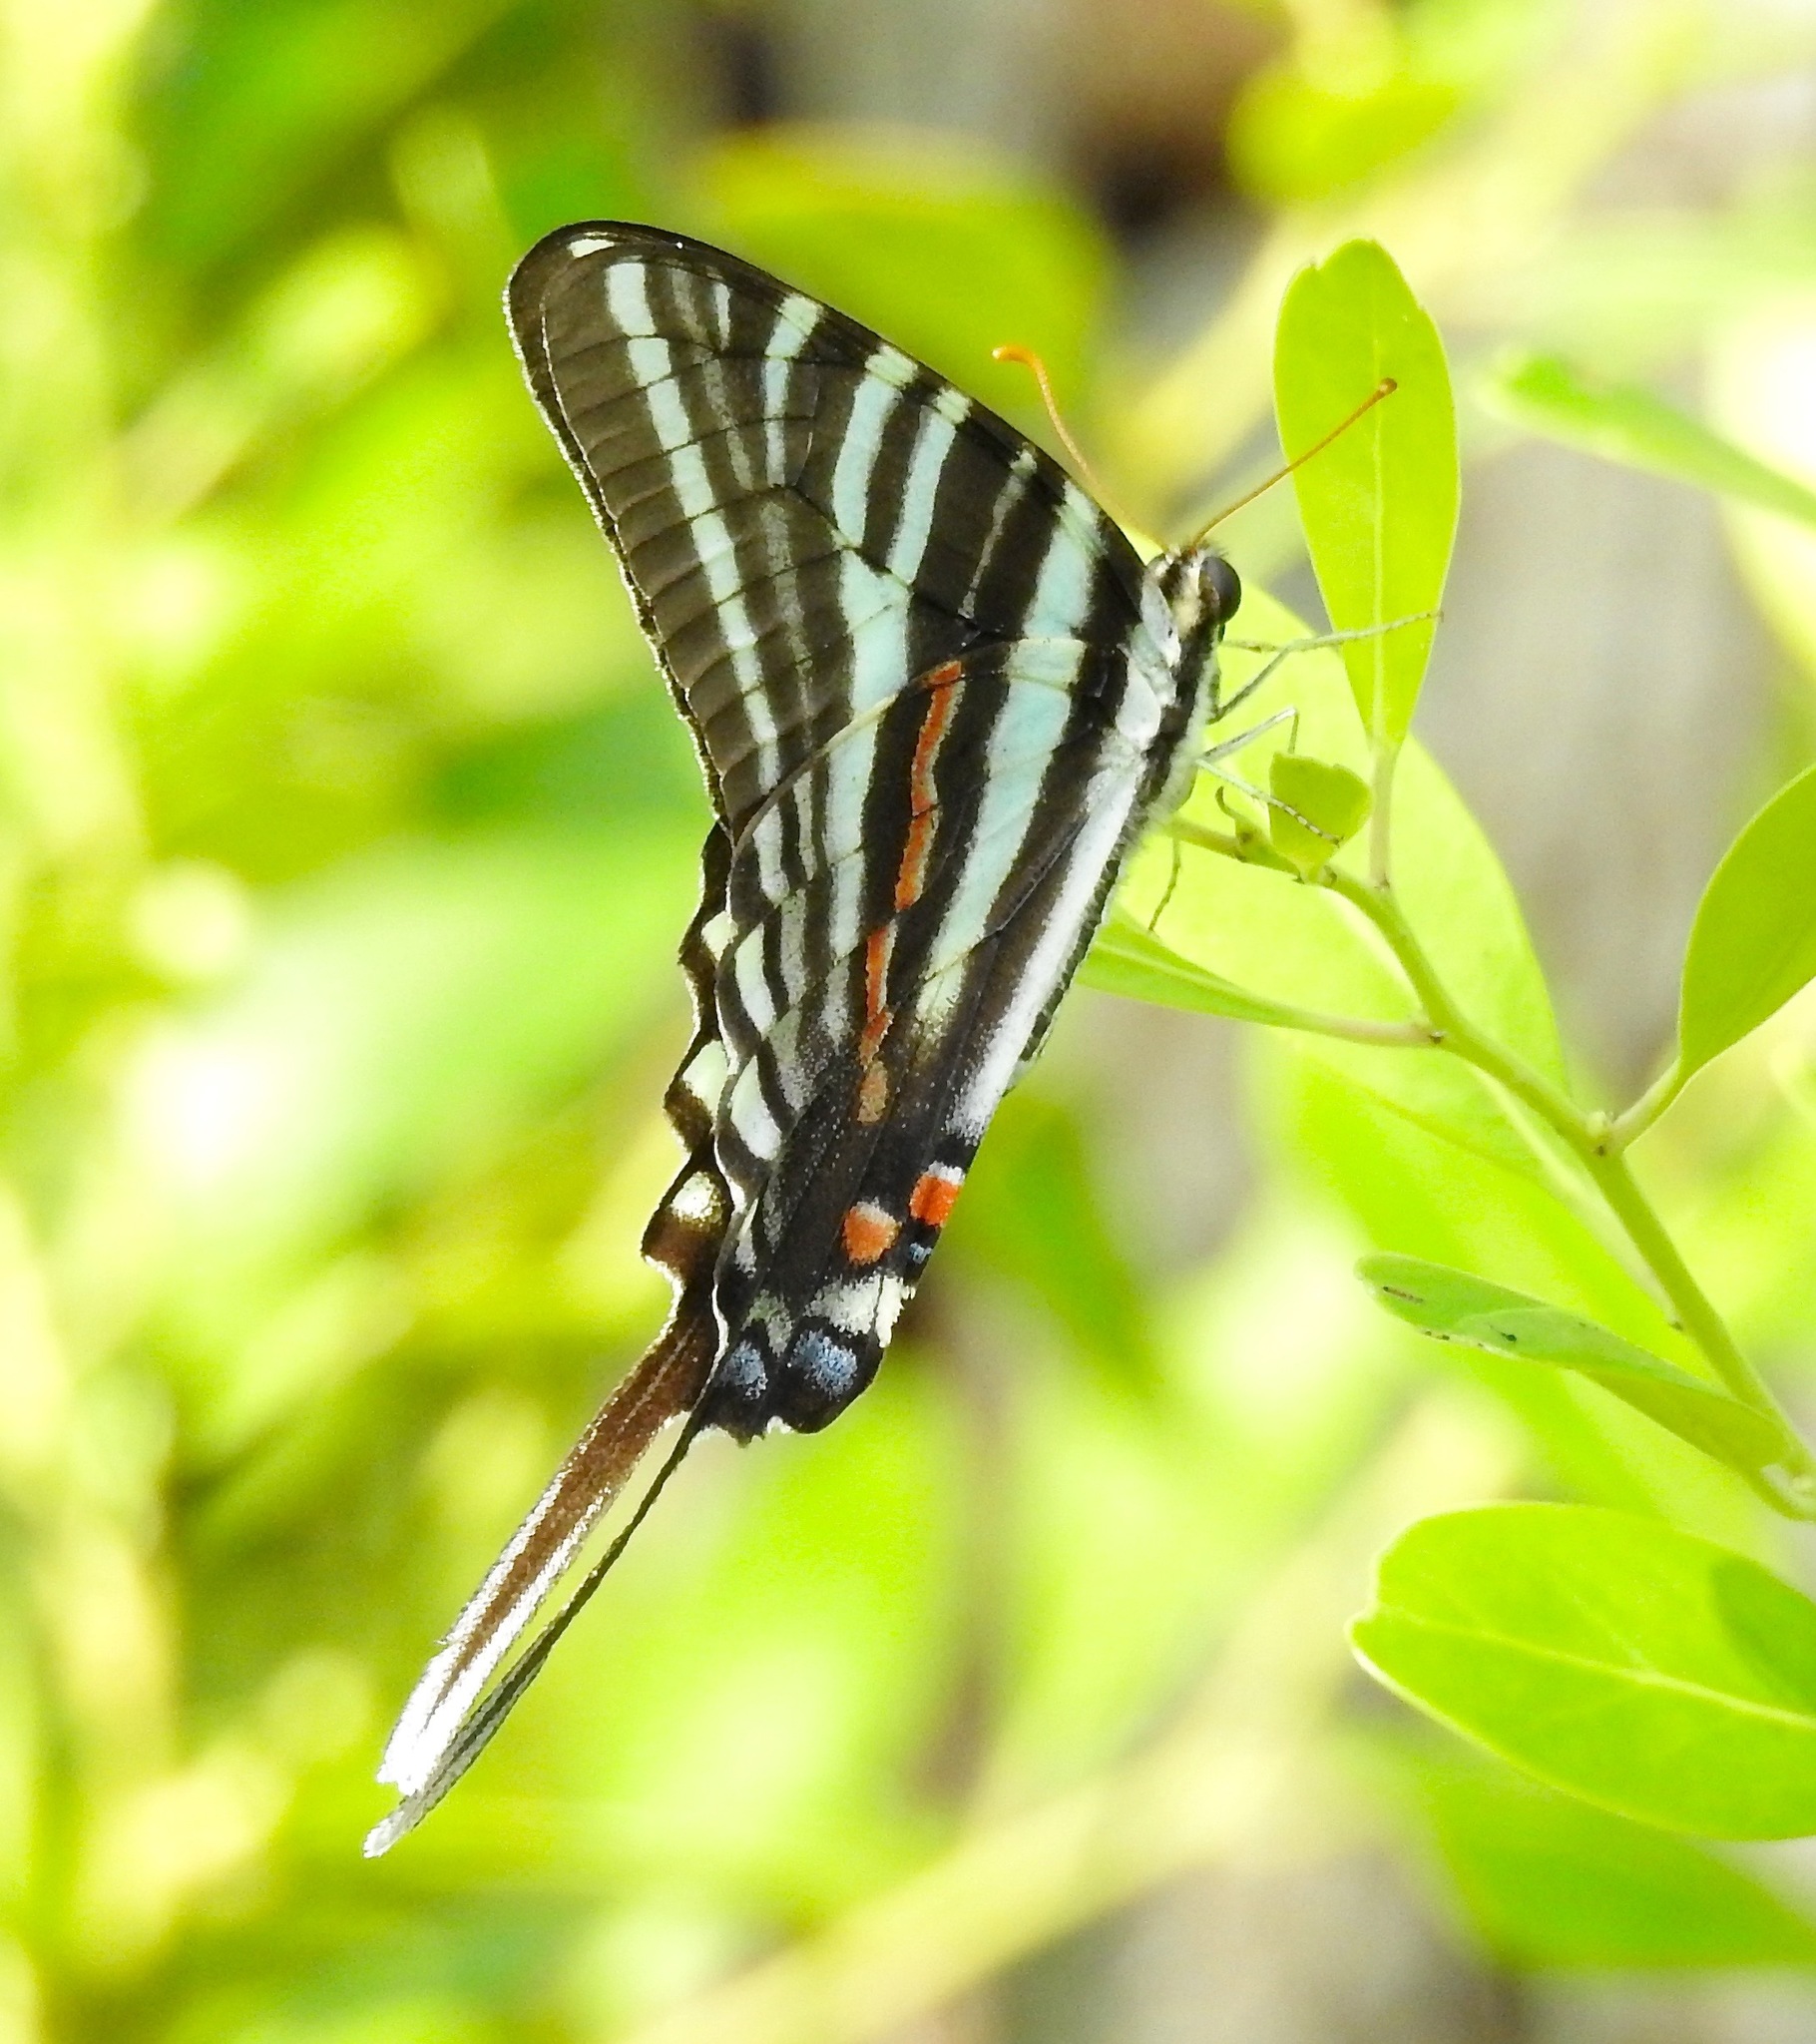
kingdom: Animalia
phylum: Arthropoda
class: Insecta
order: Lepidoptera
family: Papilionidae
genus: Protographium
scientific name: Protographium marcellus
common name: Zebra swallowtail
